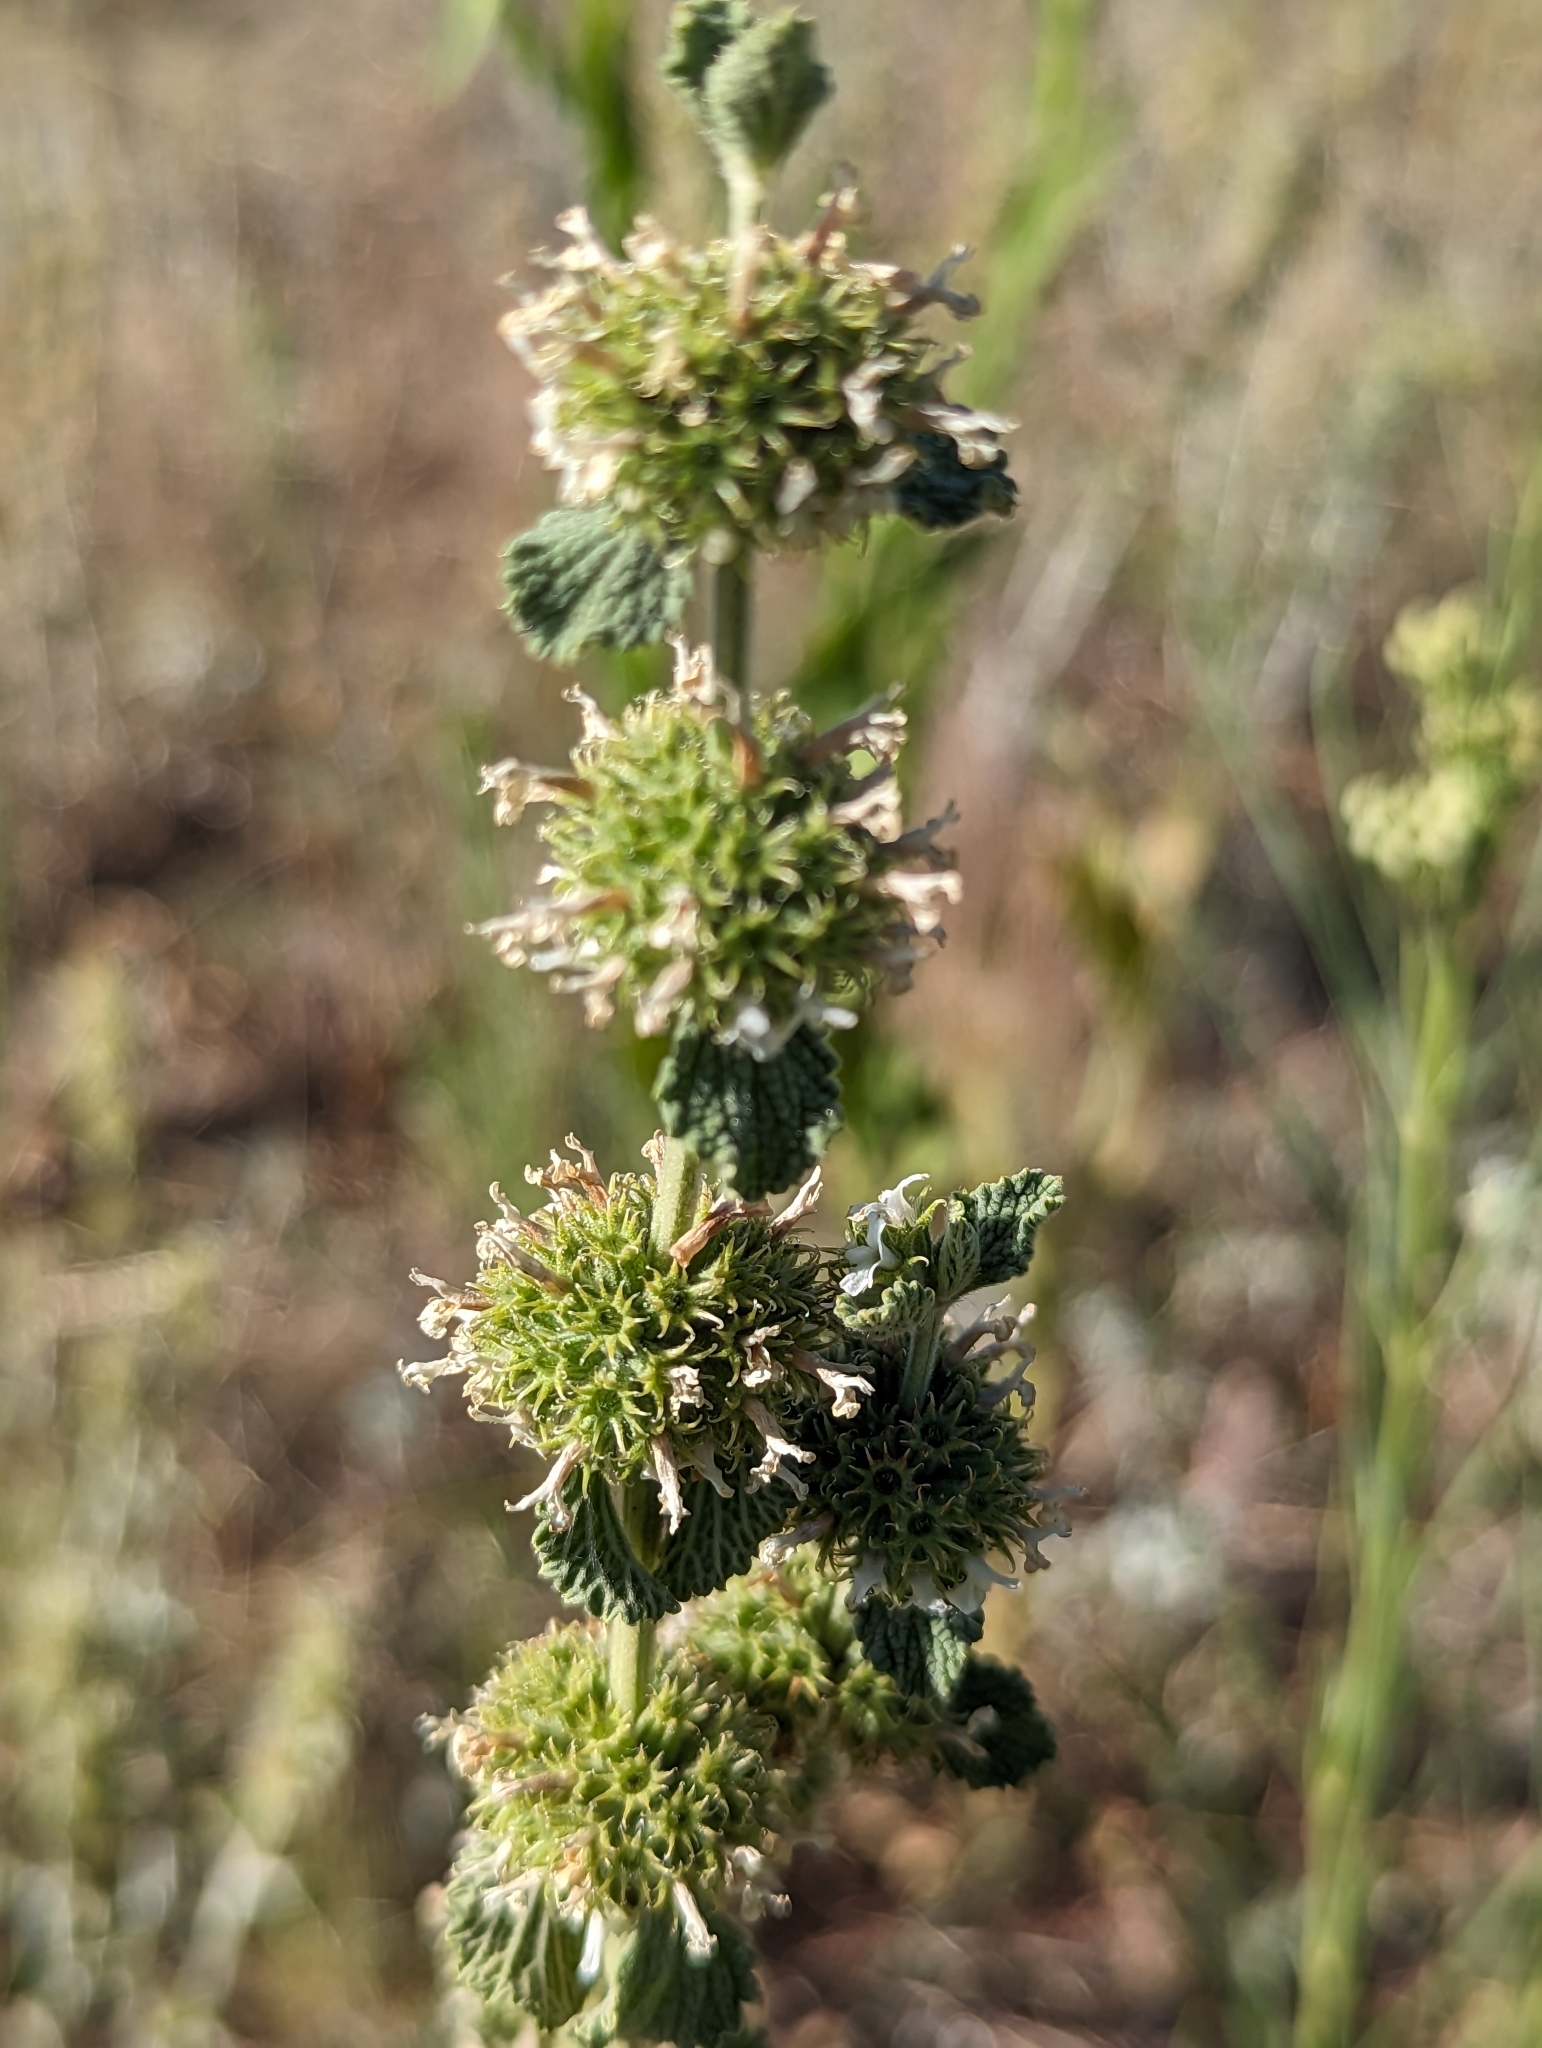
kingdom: Plantae
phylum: Tracheophyta
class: Magnoliopsida
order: Lamiales
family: Lamiaceae
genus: Marrubium
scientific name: Marrubium vulgare
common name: Horehound
